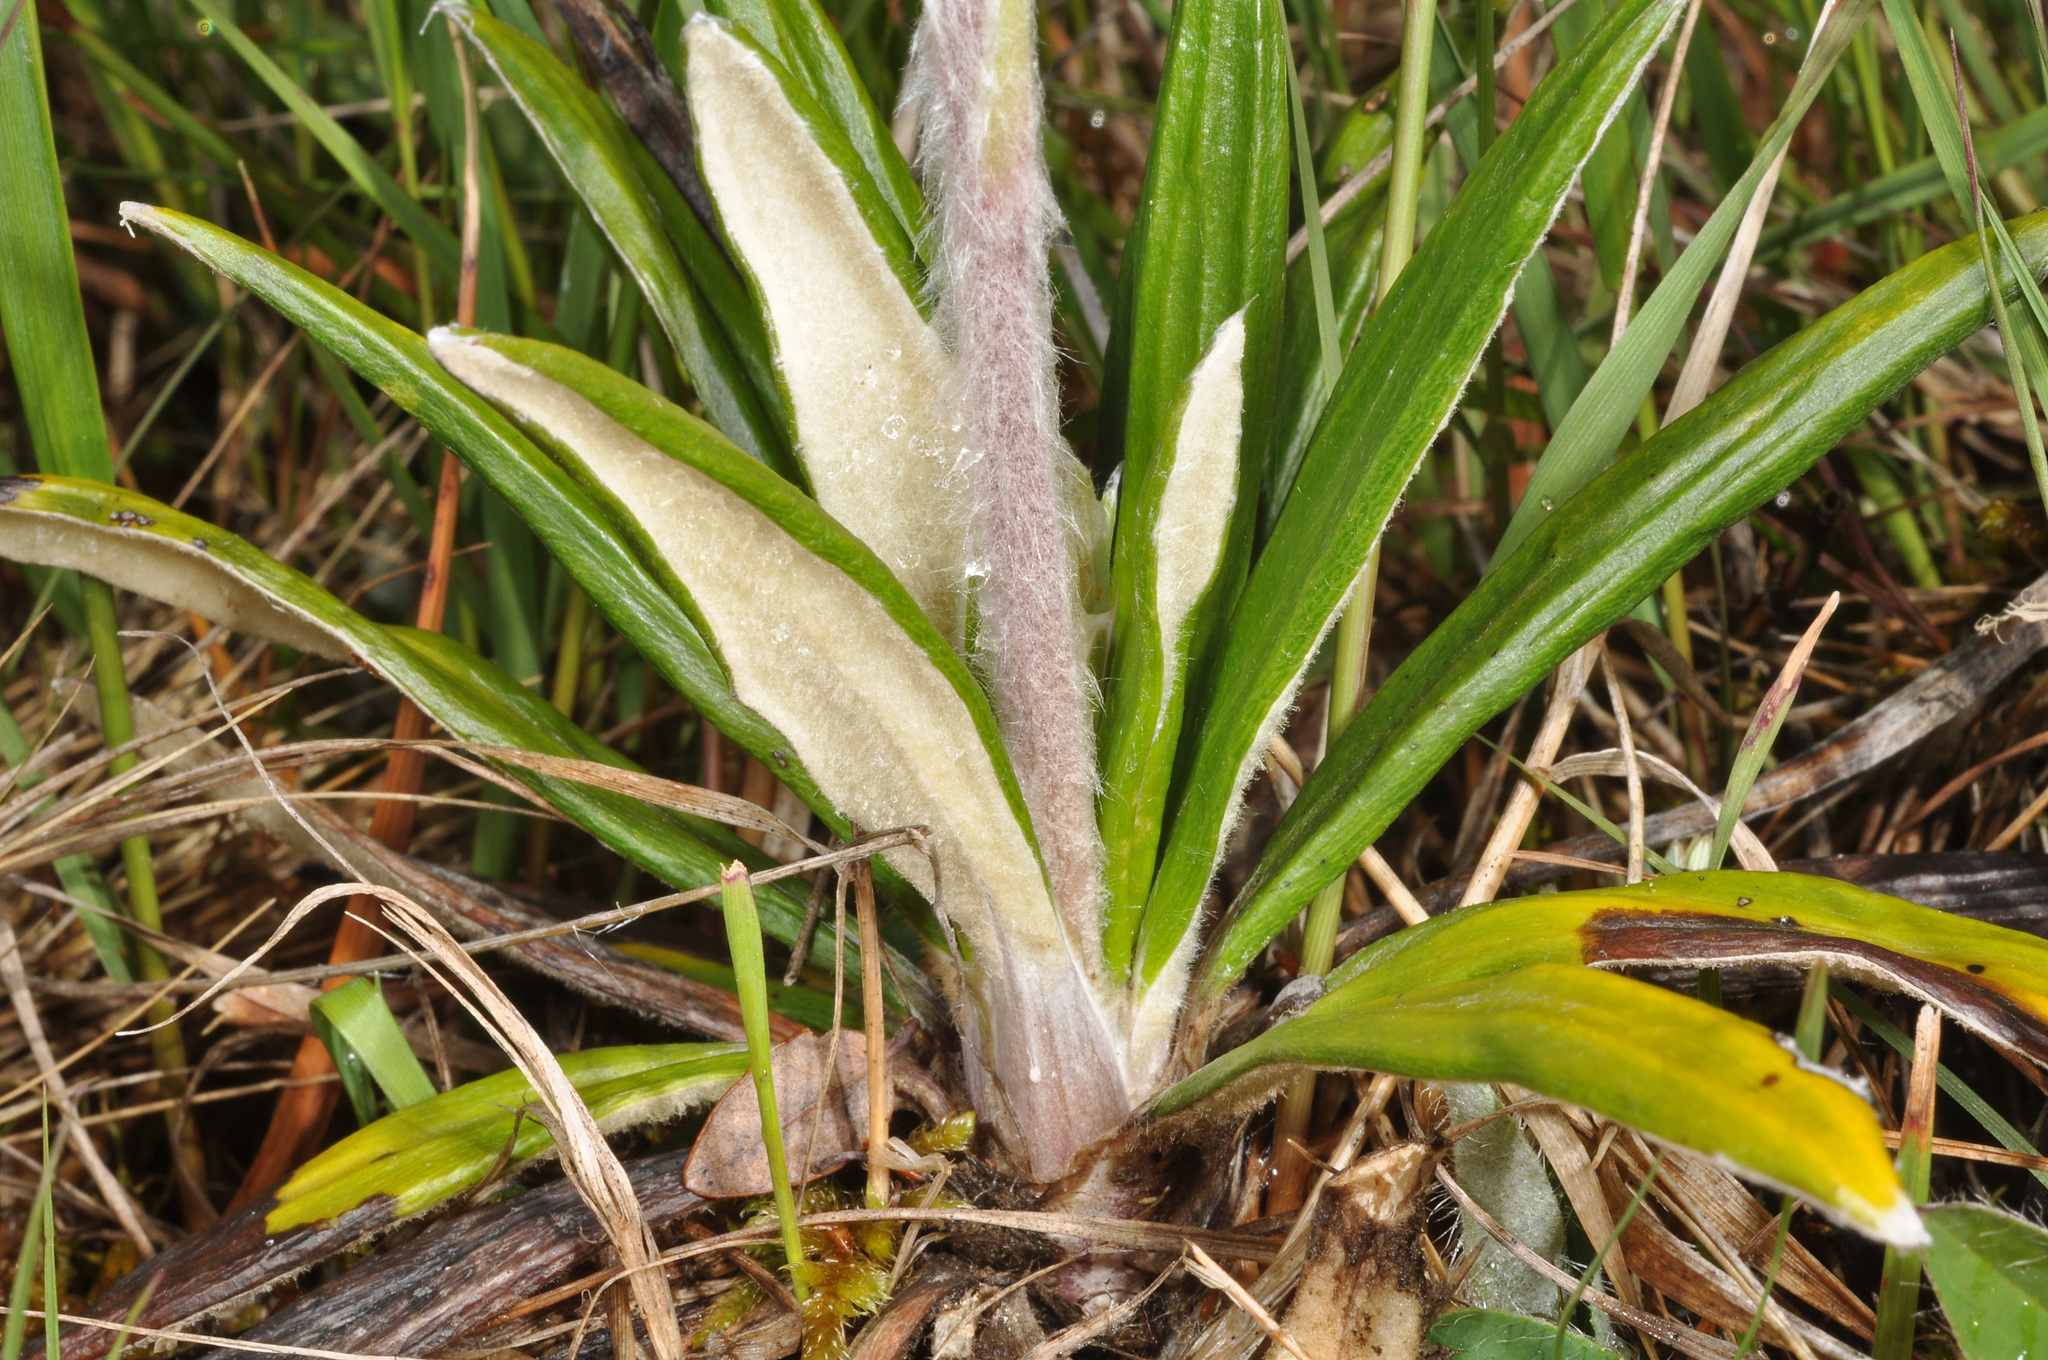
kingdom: Plantae
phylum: Tracheophyta
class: Magnoliopsida
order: Asterales
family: Asteraceae
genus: Celmisia
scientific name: Celmisia spectabilis
